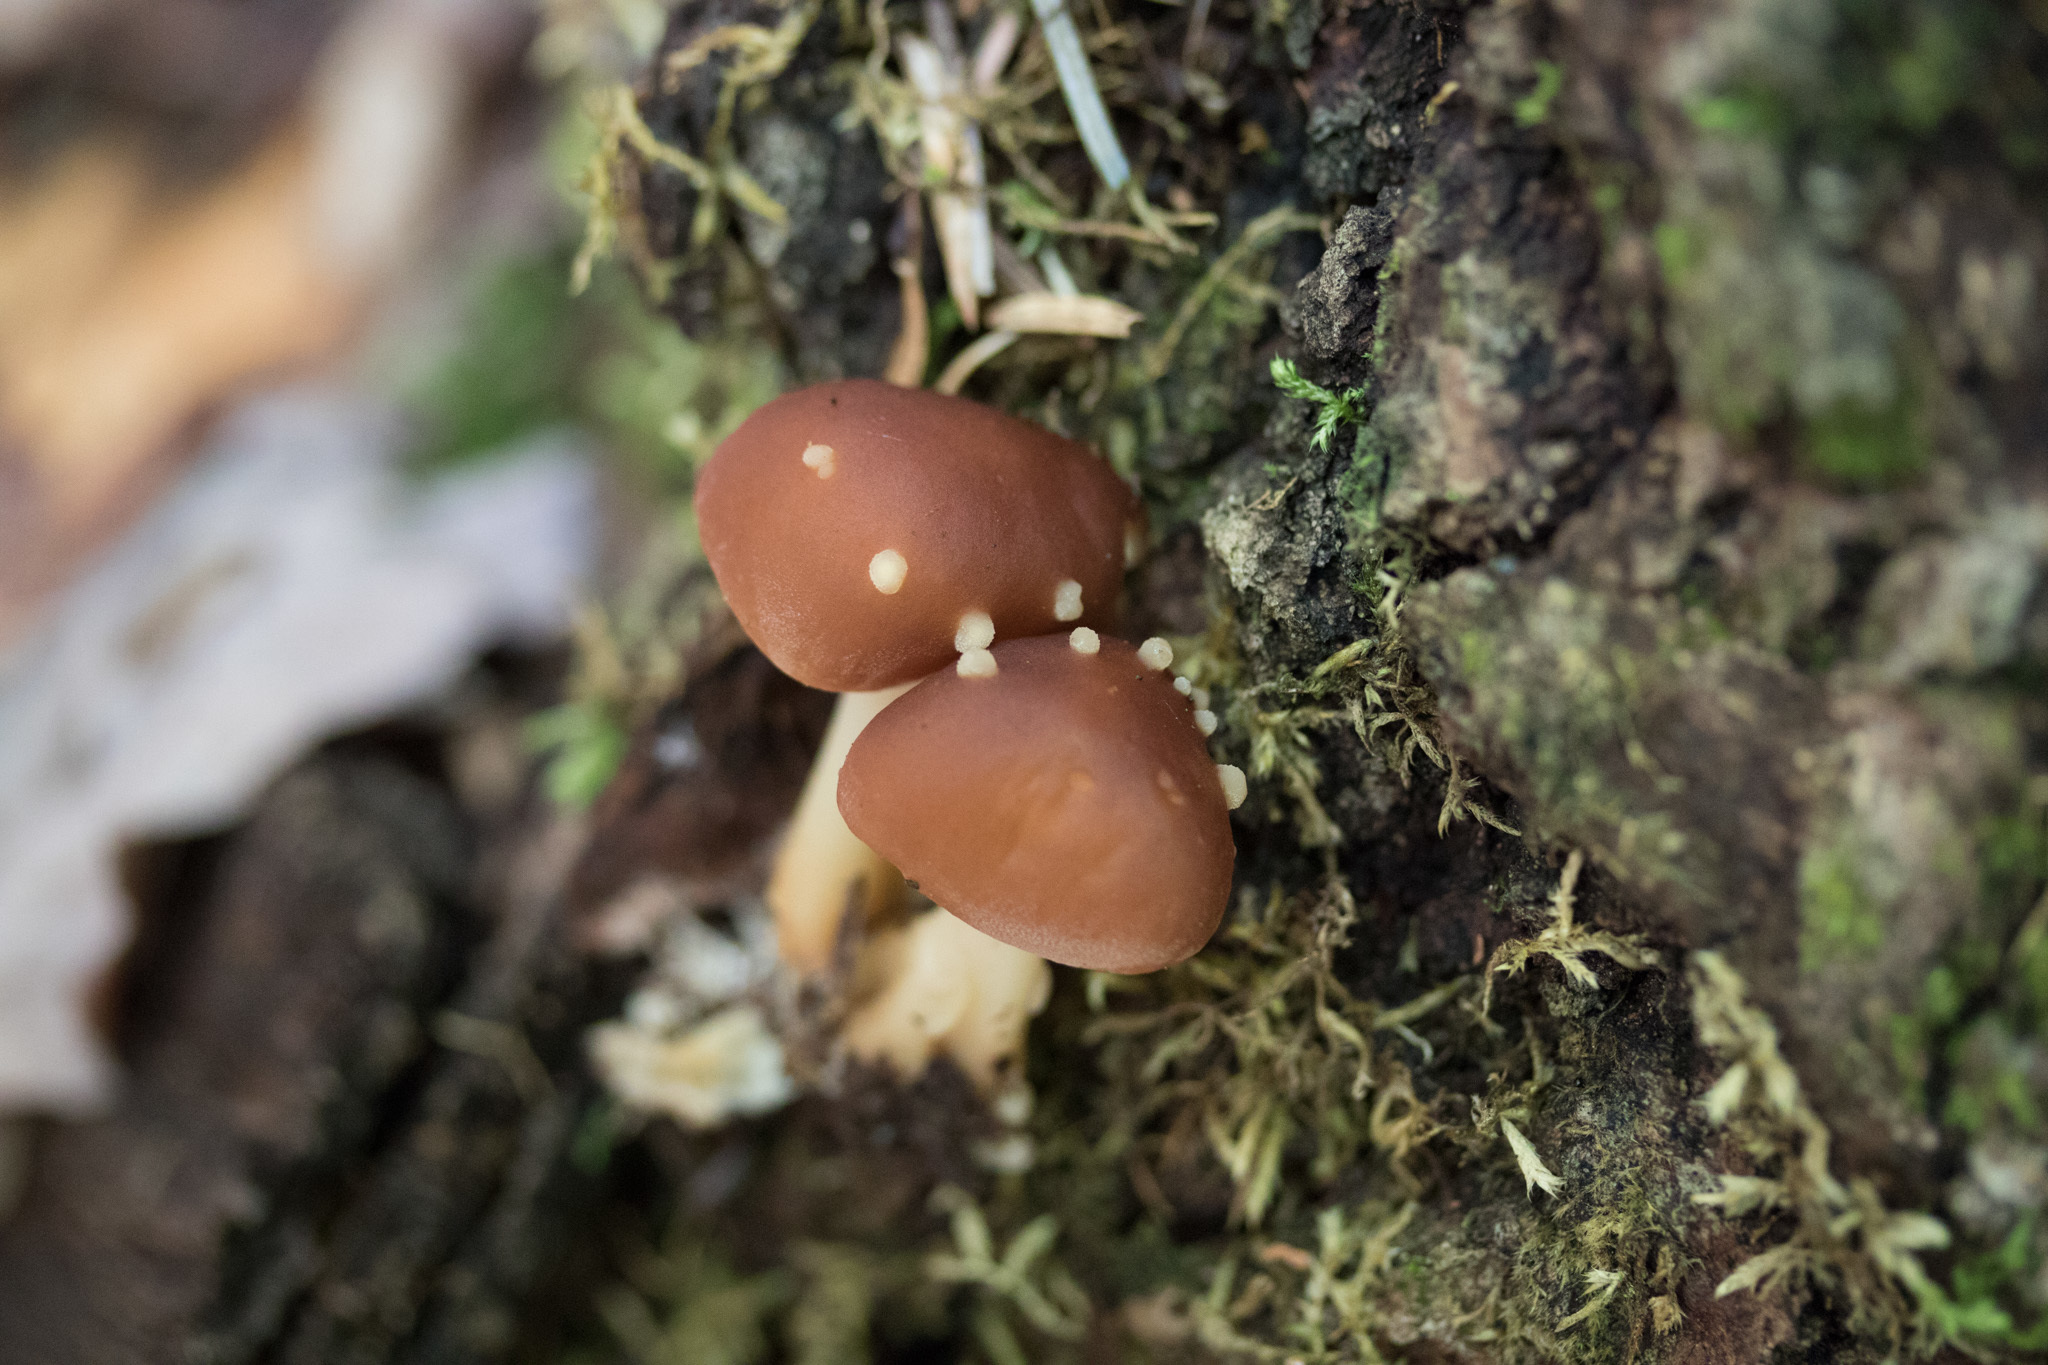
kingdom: Fungi
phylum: Basidiomycota
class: Agaricomycetes
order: Agaricales
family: Omphalotaceae
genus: Gymnopus
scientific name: Gymnopus dryophilus
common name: Penny top
